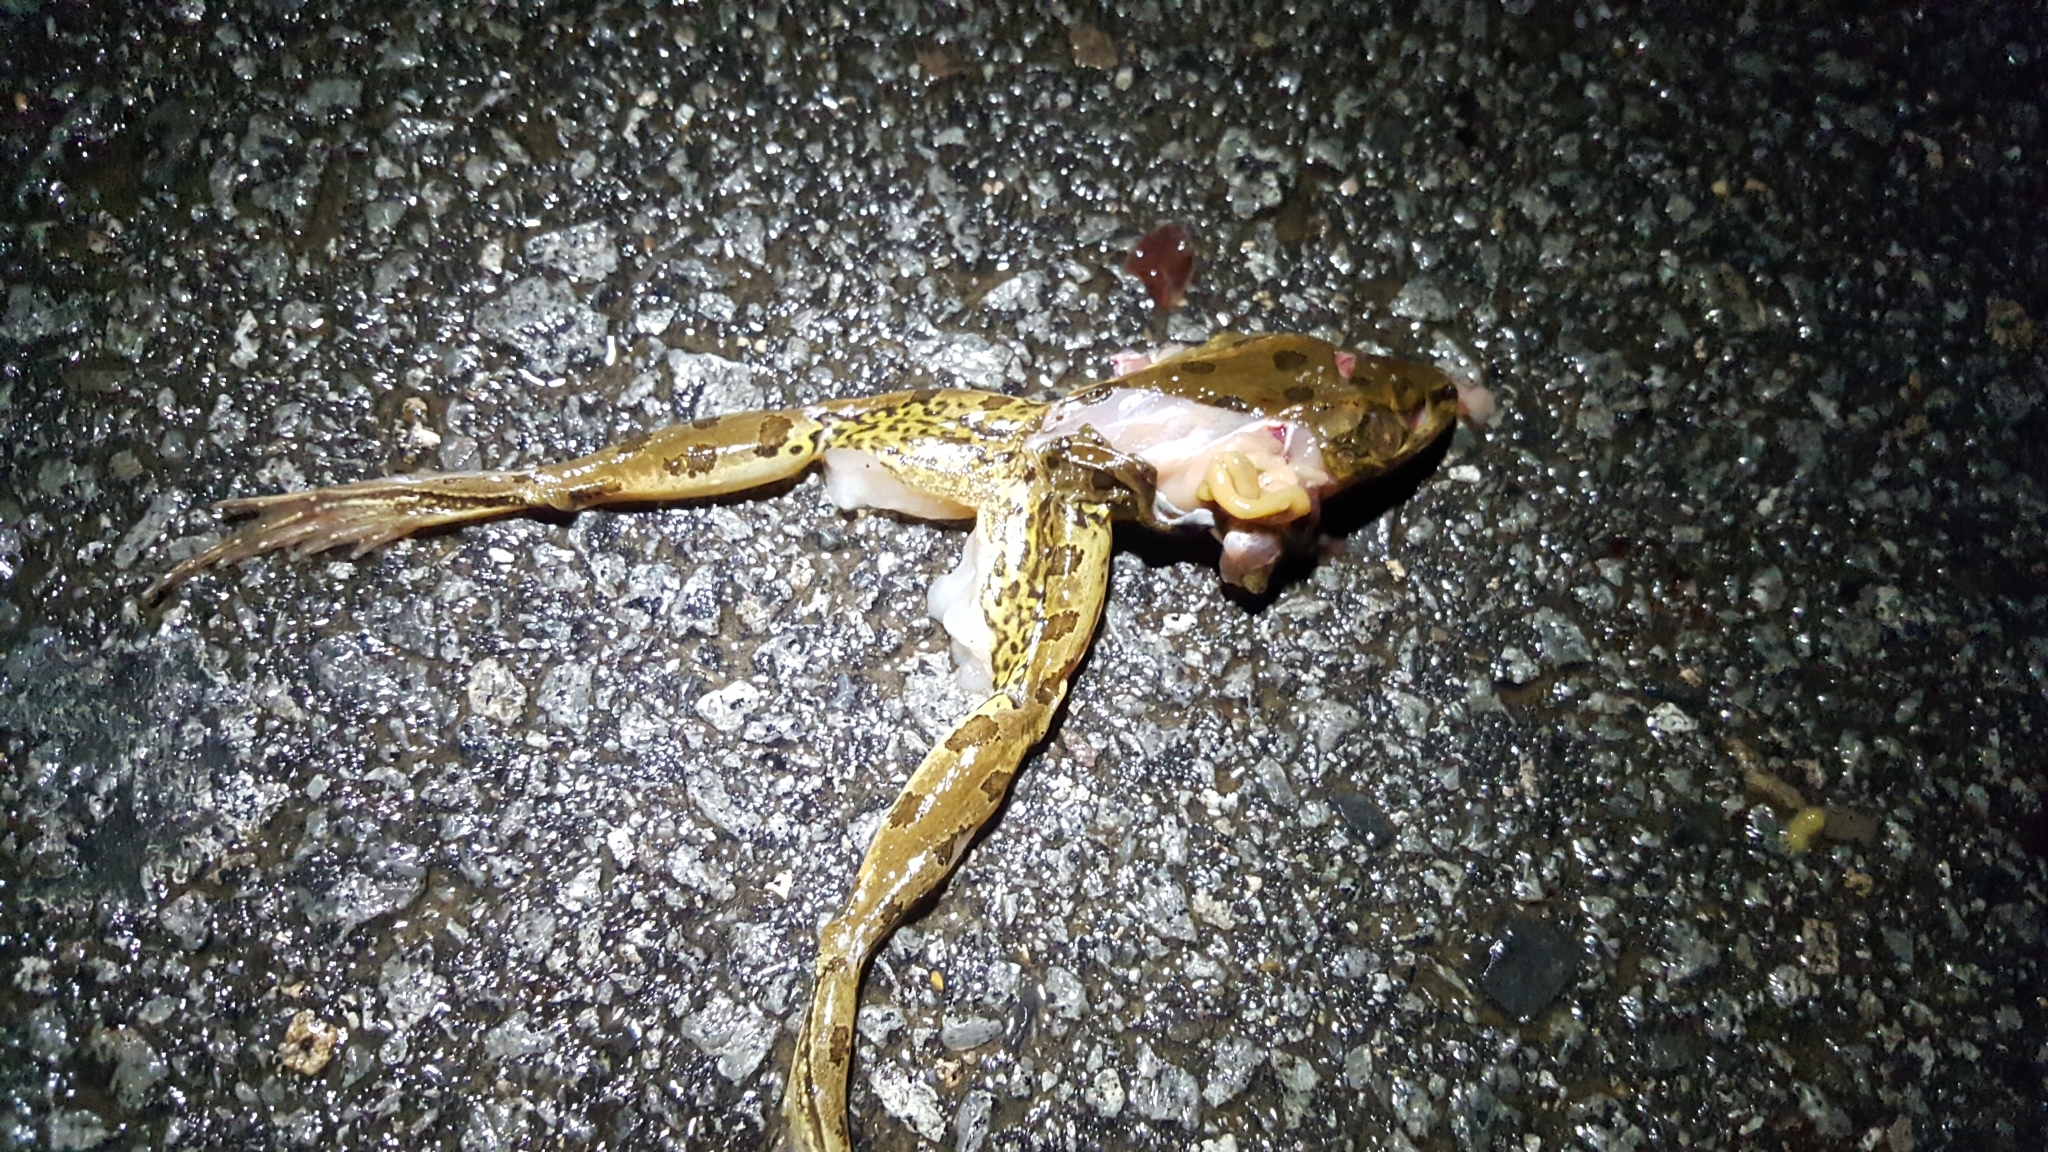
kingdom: Animalia
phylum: Chordata
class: Amphibia
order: Anura
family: Ranidae
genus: Lithobates
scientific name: Lithobates sphenocephalus
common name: Southern leopard frog
